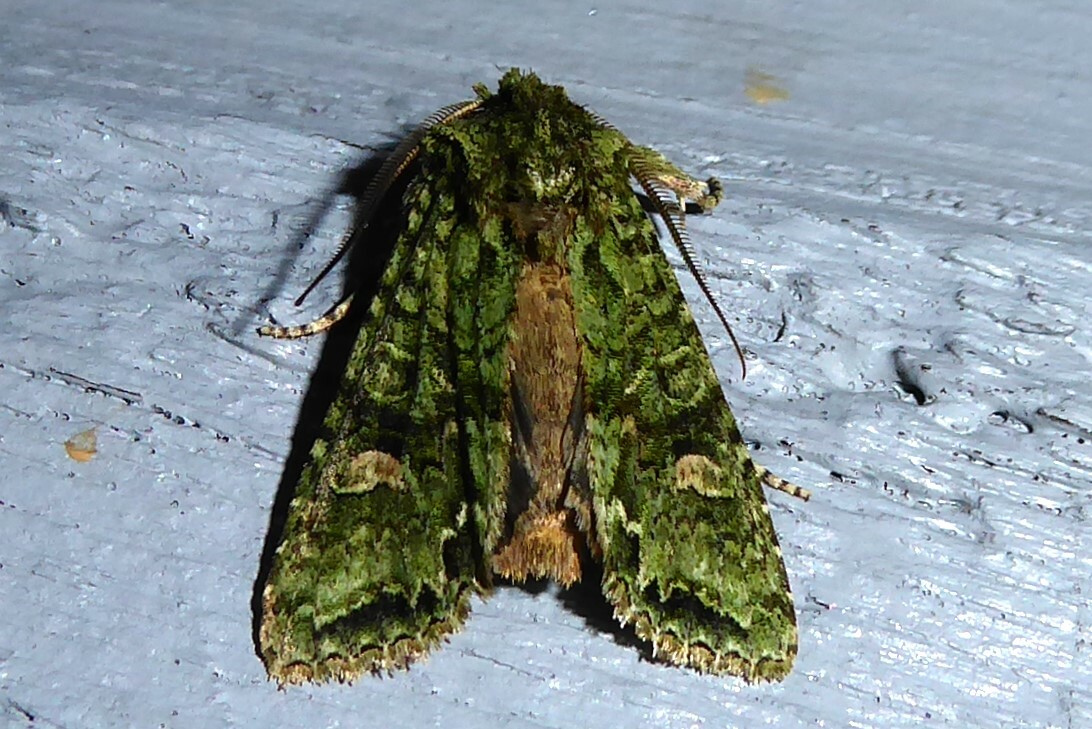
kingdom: Animalia
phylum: Arthropoda
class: Insecta
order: Lepidoptera
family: Noctuidae
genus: Ichneutica
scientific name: Ichneutica
